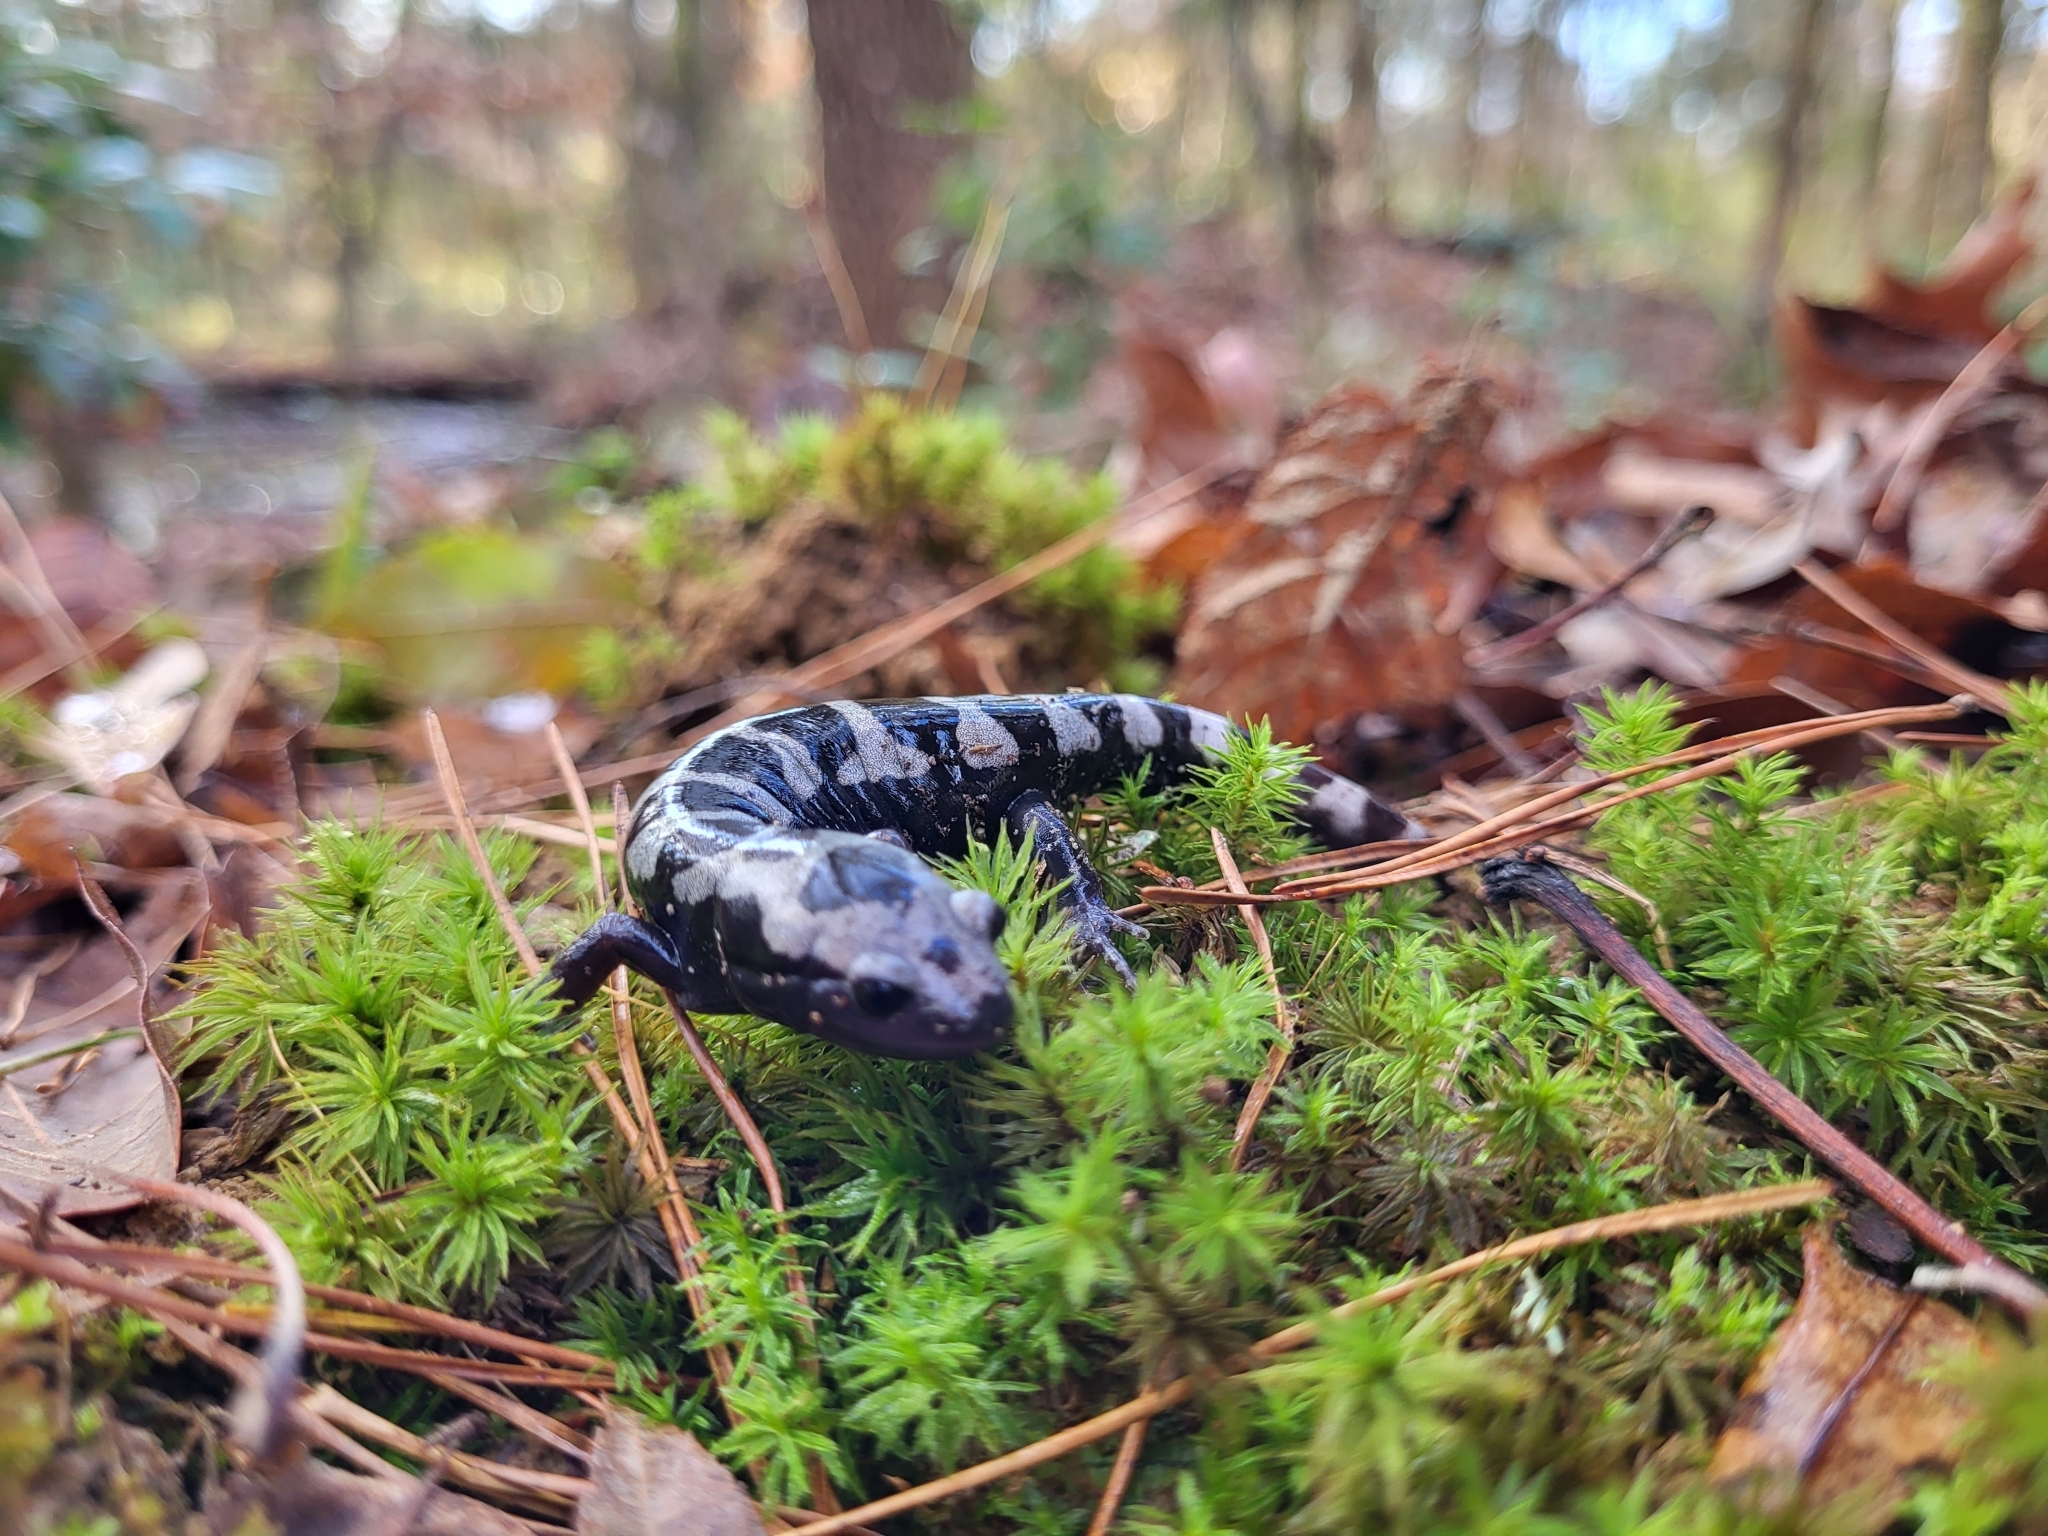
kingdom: Animalia
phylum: Chordata
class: Amphibia
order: Caudata
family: Ambystomatidae
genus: Ambystoma
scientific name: Ambystoma opacum
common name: Marbled salamander
